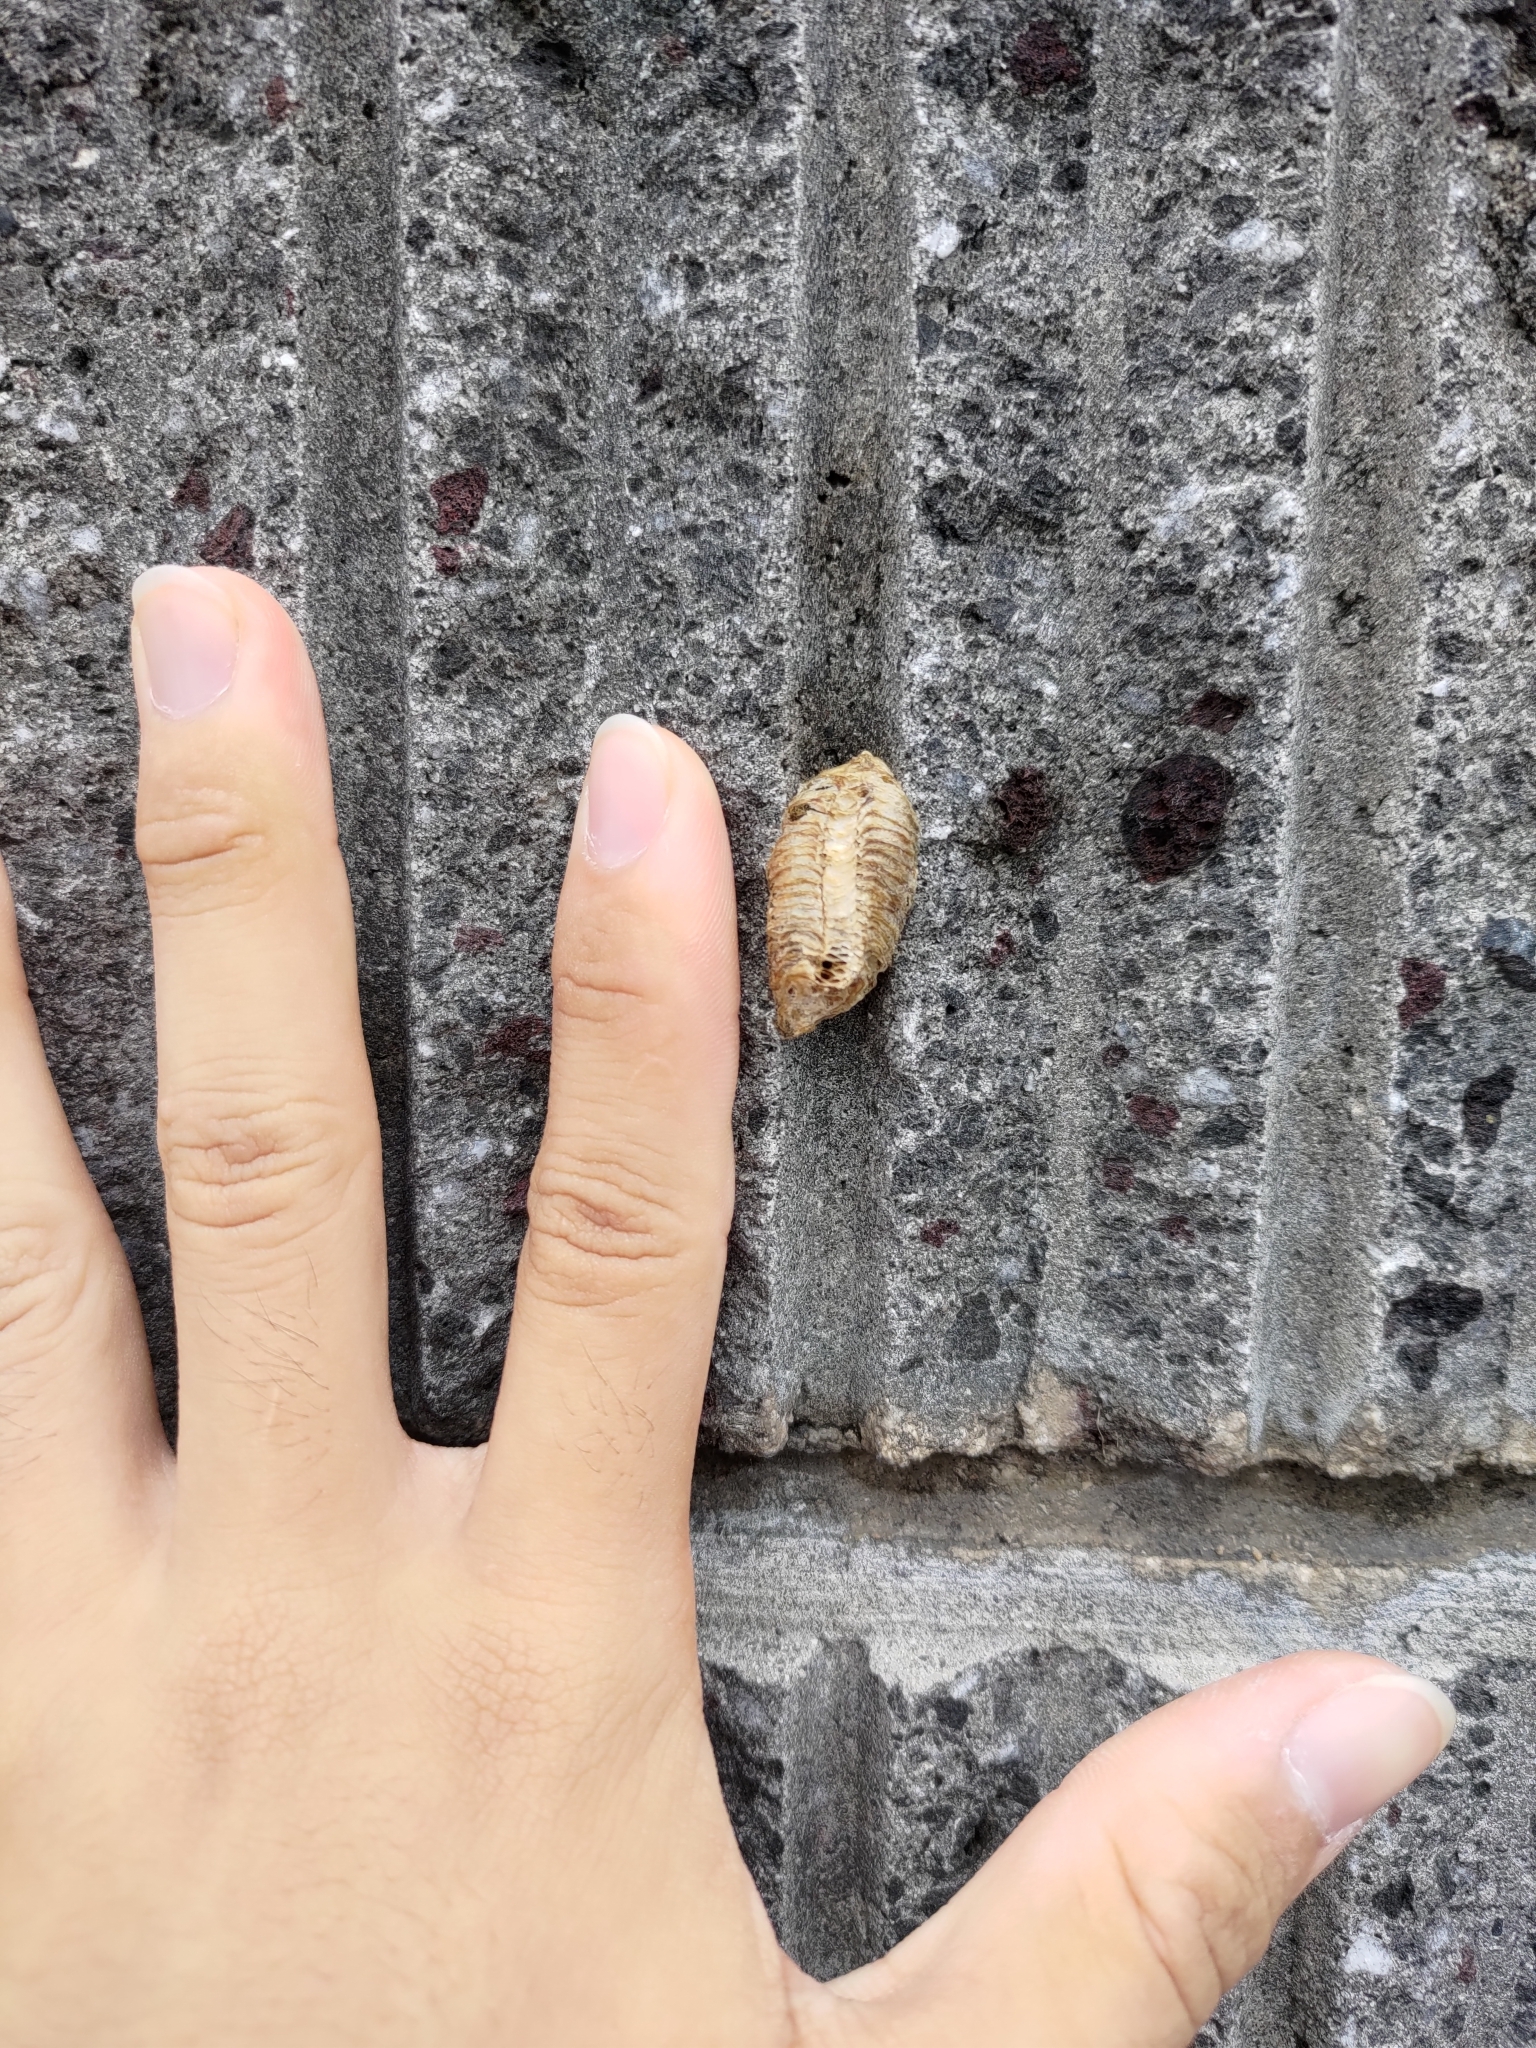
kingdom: Animalia
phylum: Arthropoda
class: Insecta
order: Mantodea
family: Mantidae
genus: Hierodula
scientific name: Hierodula patellifera
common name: Asian mantis
